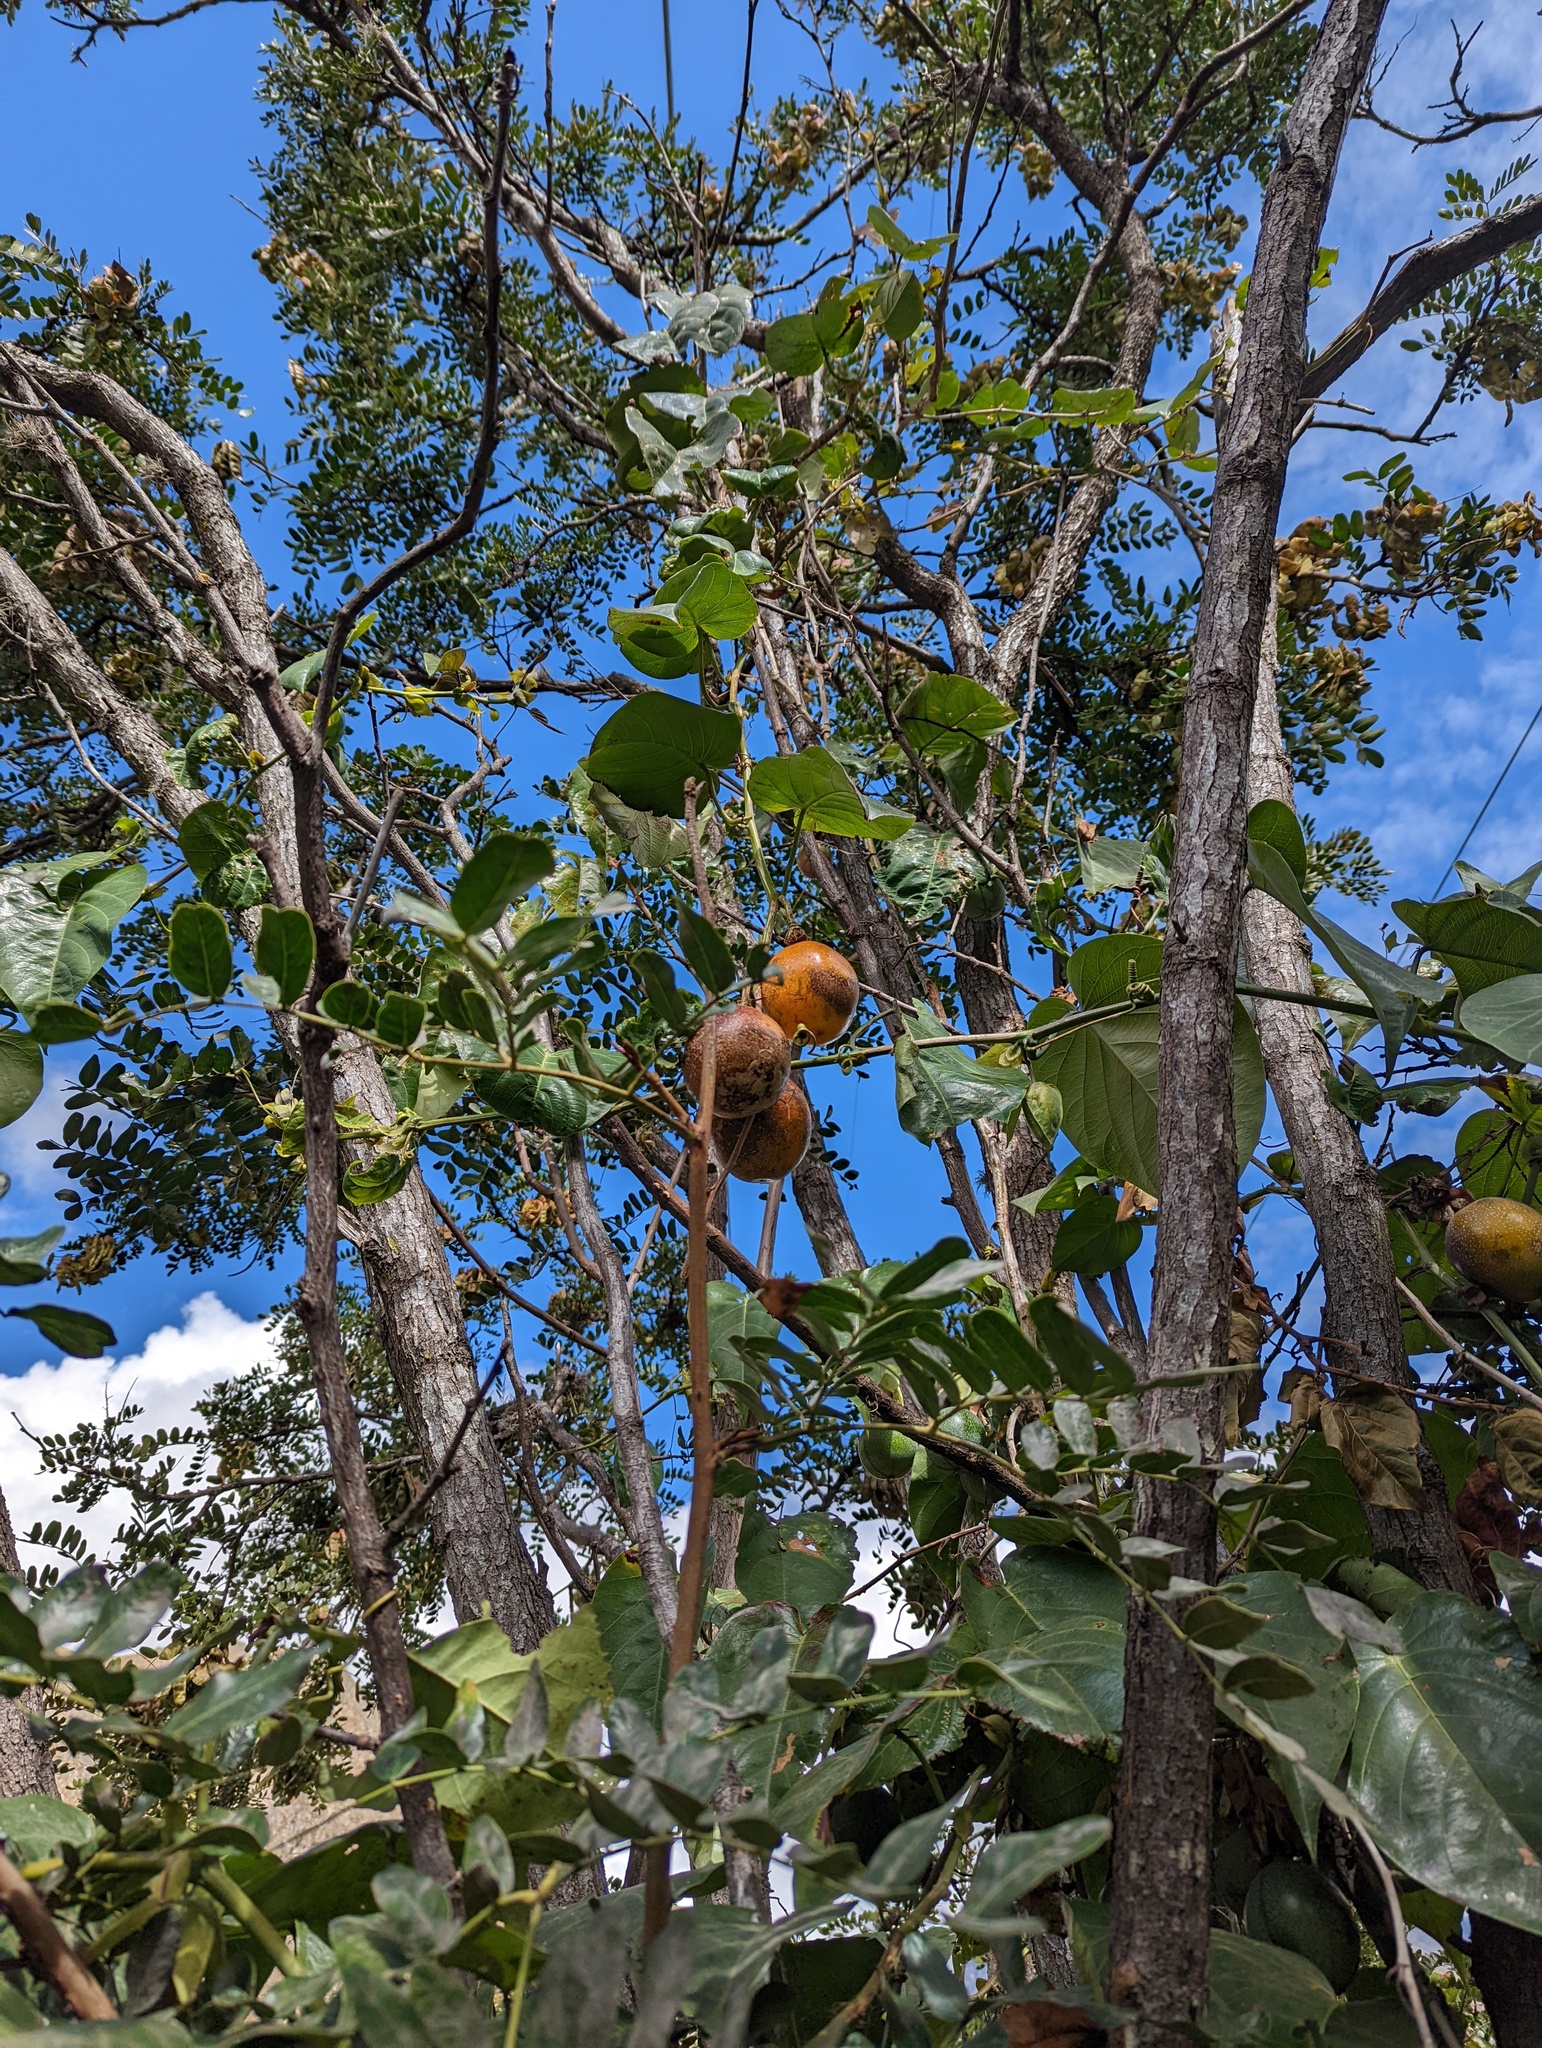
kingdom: Plantae
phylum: Tracheophyta
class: Magnoliopsida
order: Malpighiales
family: Passifloraceae
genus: Passiflora
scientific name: Passiflora ligularis
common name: Sweet granadilla
